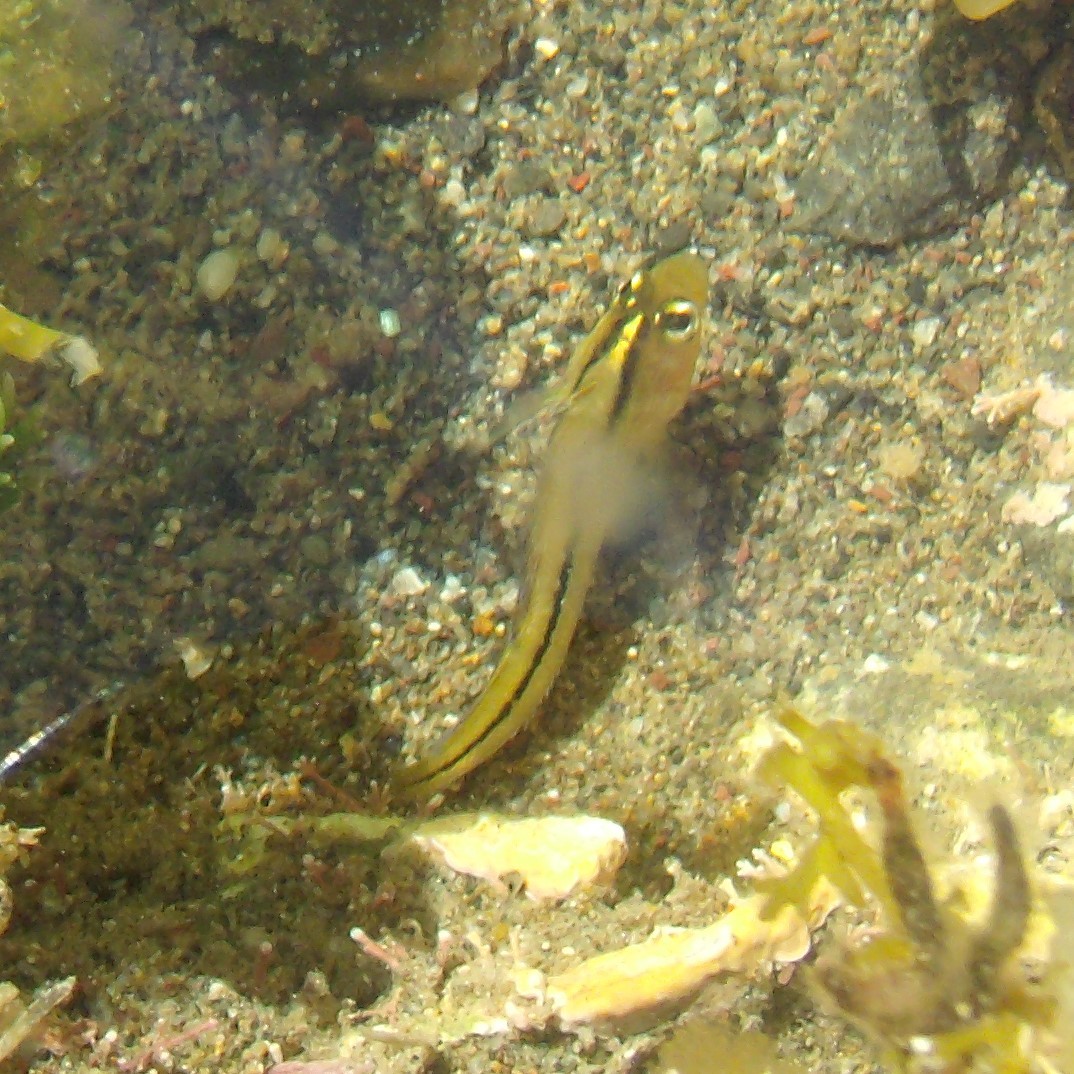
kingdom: Animalia
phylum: Chordata
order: Perciformes
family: Tripterygiidae
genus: Forsterygion
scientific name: Forsterygion lapillum
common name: Common triplefin
